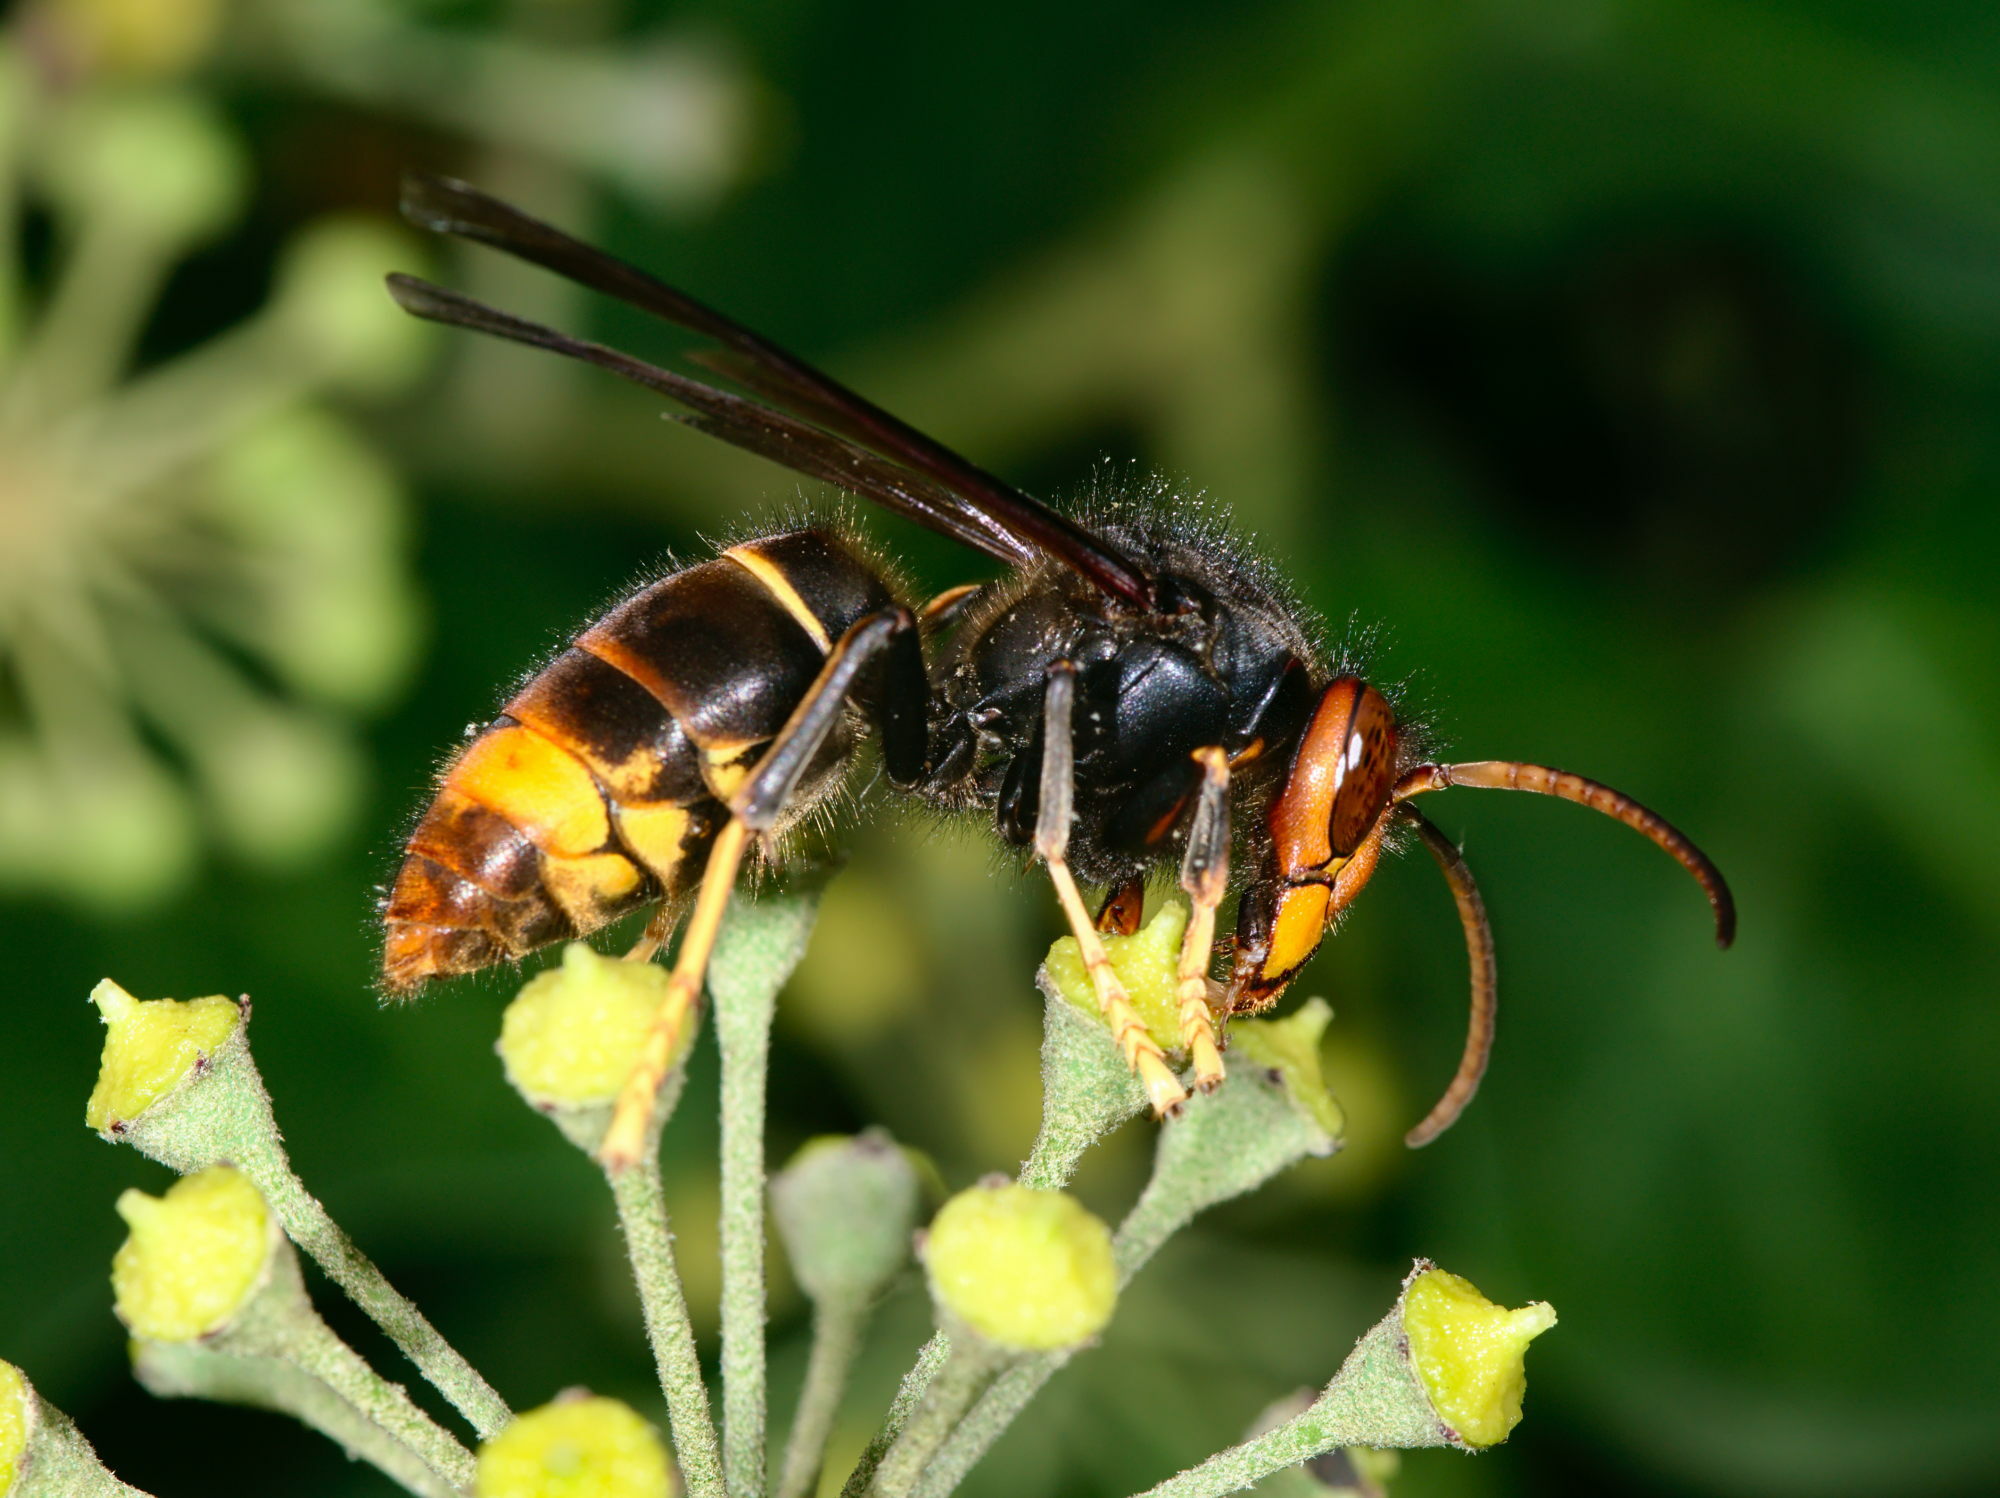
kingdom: Animalia
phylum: Arthropoda
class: Insecta
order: Hymenoptera
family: Vespidae
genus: Vespa
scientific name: Vespa velutina
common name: Asian hornet
